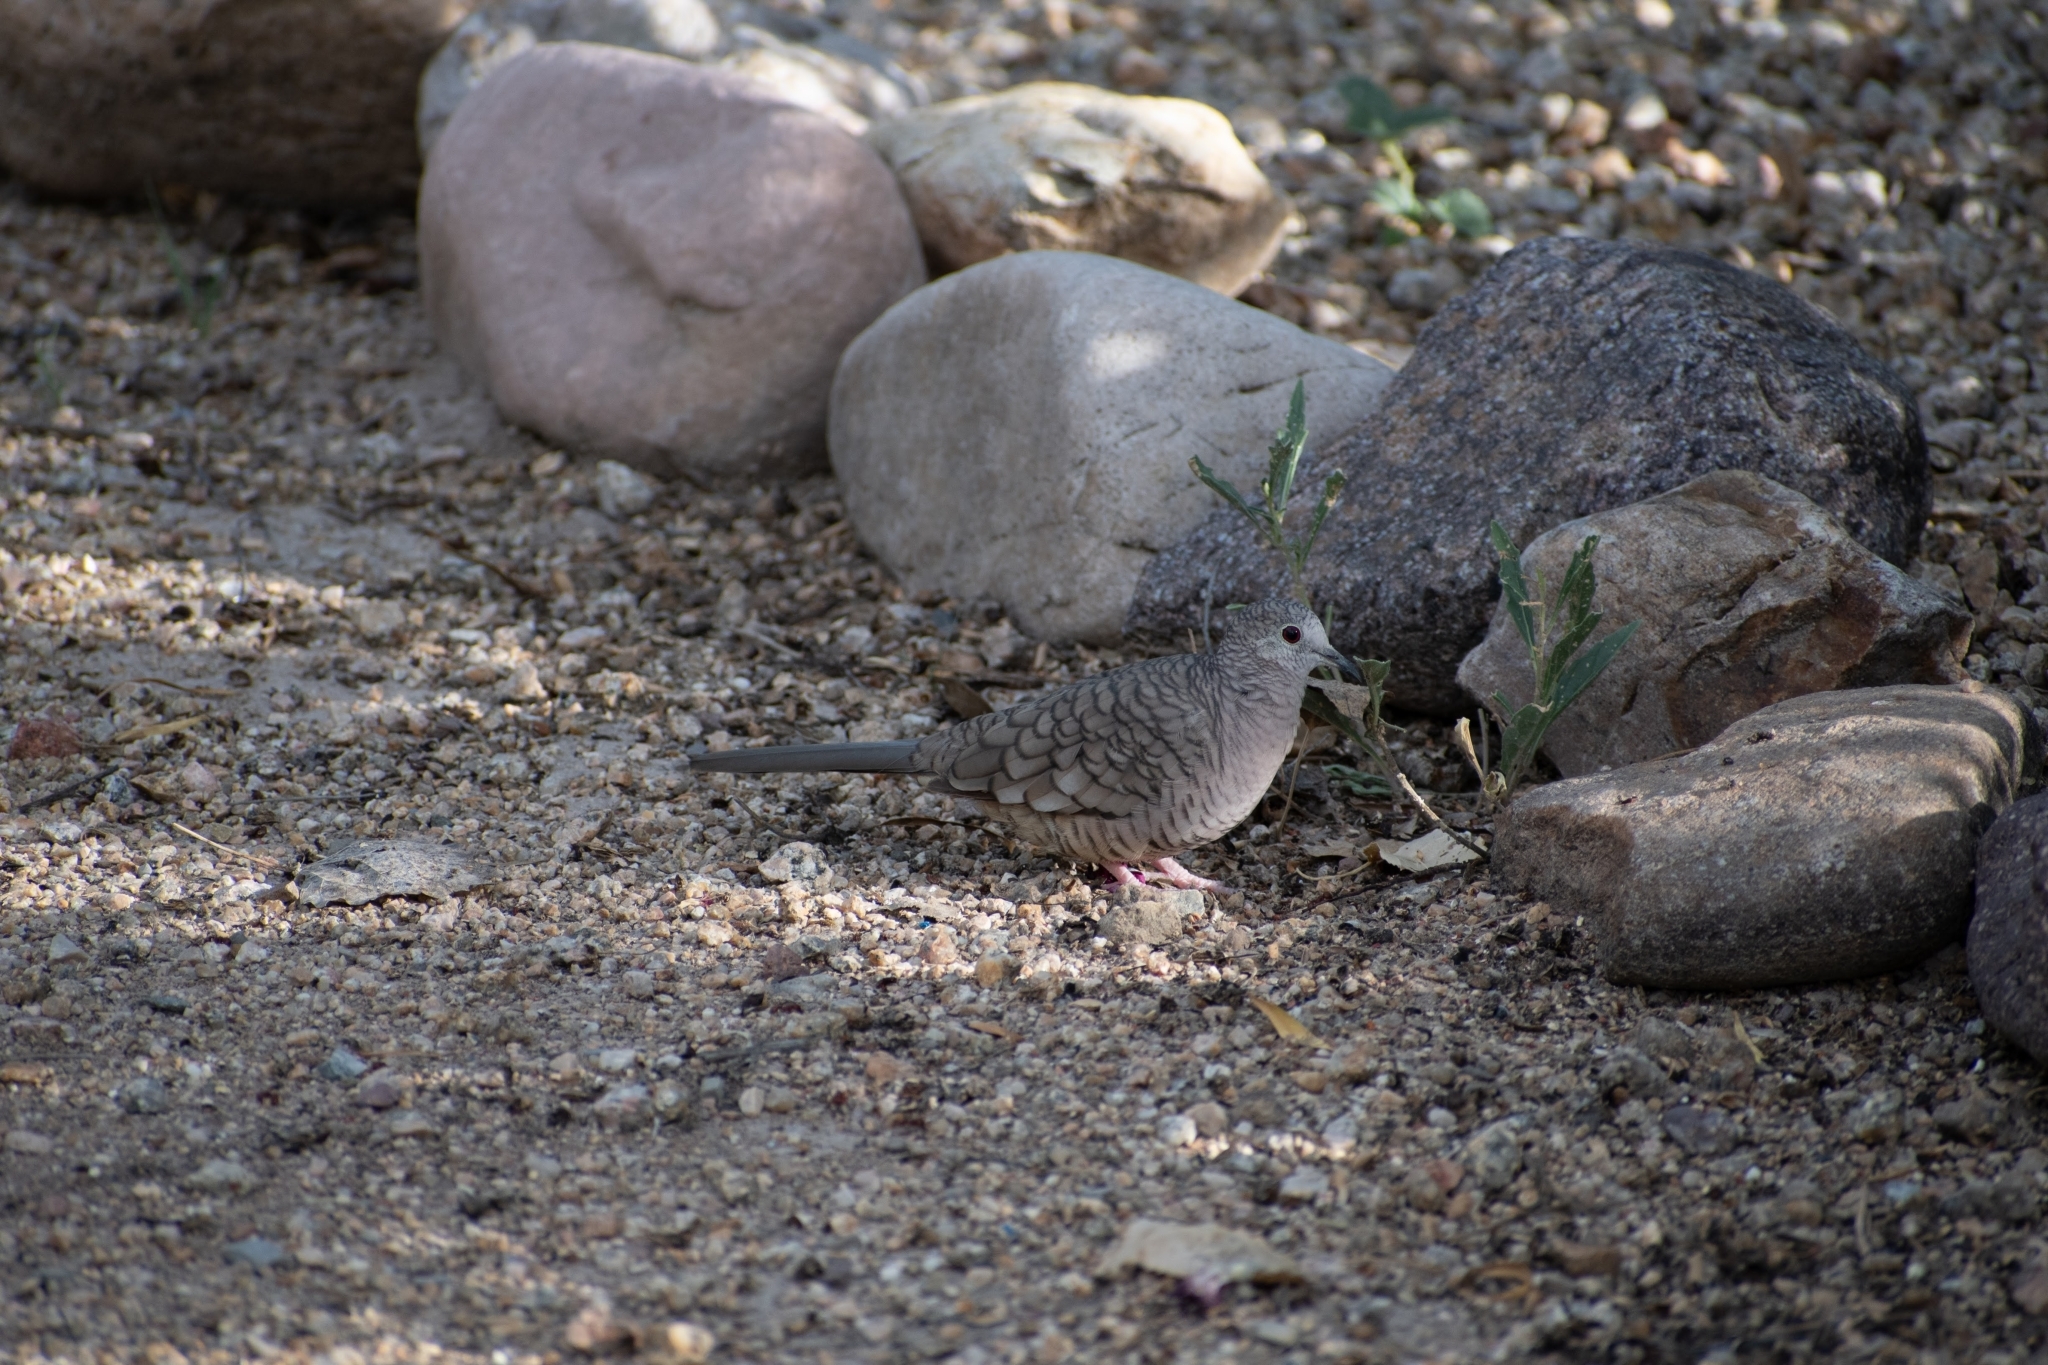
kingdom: Animalia
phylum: Chordata
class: Aves
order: Columbiformes
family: Columbidae
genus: Columbina
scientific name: Columbina inca
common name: Inca dove
